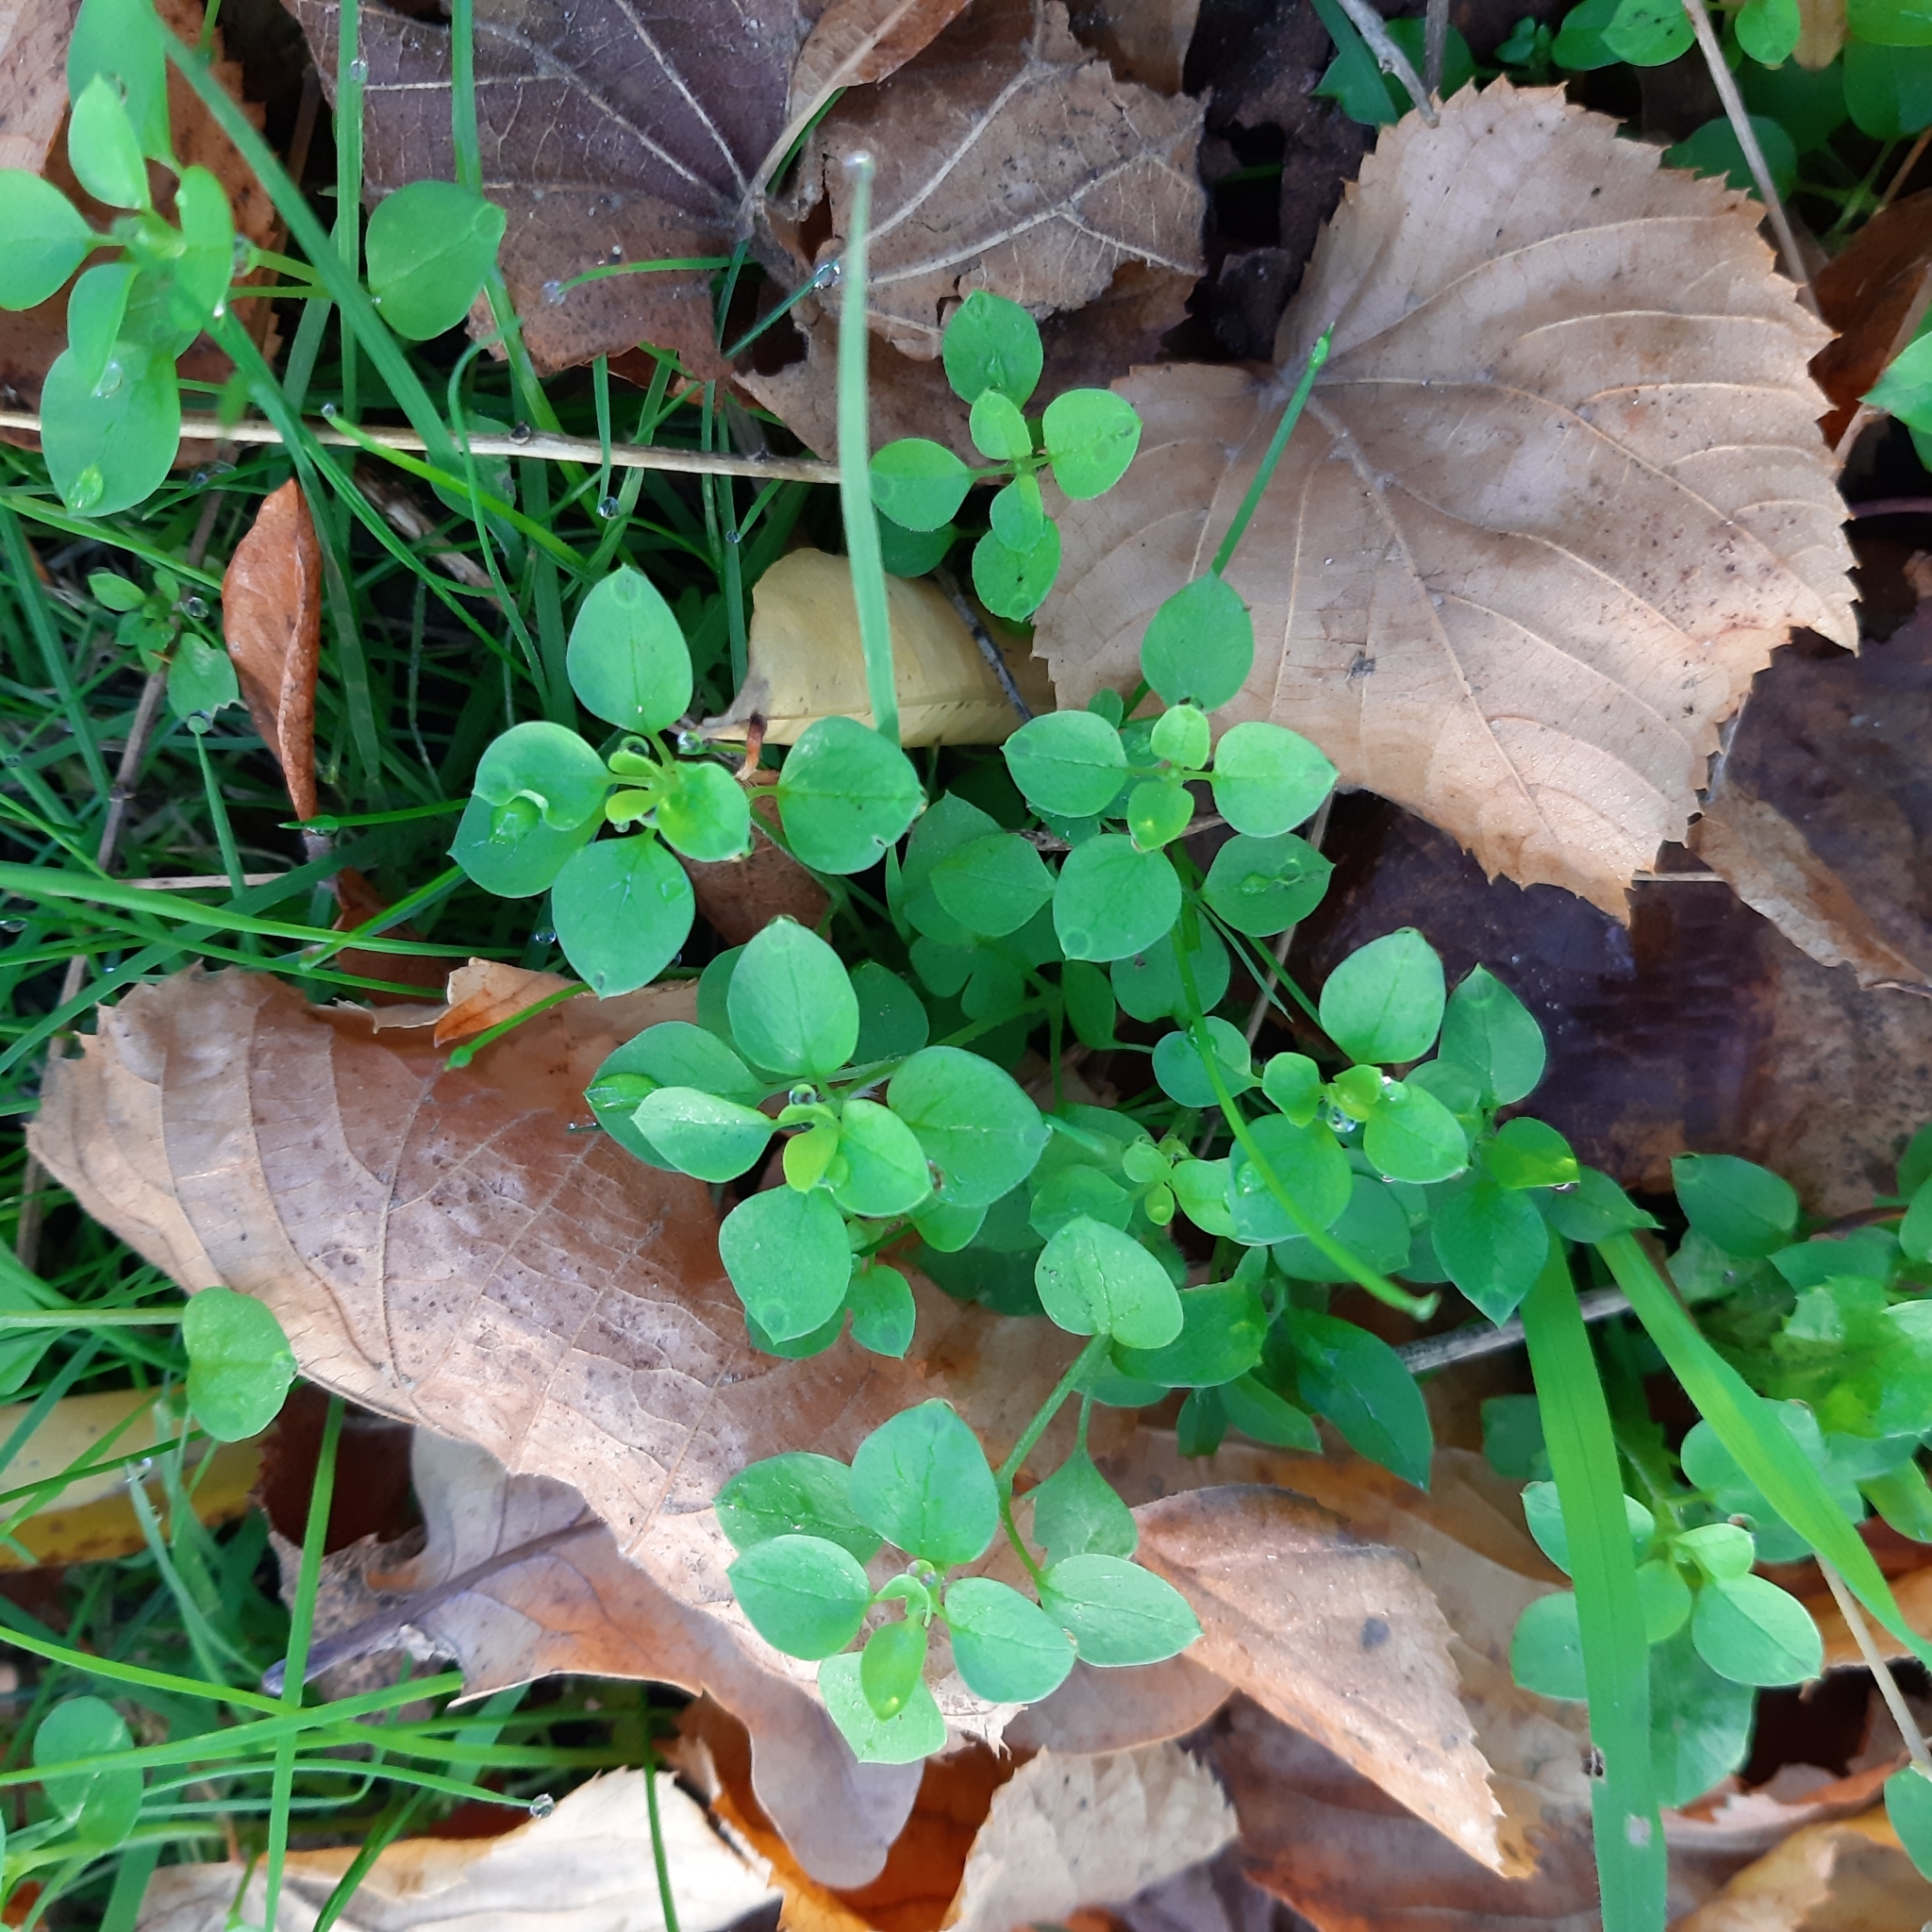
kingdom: Plantae
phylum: Tracheophyta
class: Magnoliopsida
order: Caryophyllales
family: Caryophyllaceae
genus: Stellaria
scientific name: Stellaria media
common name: Common chickweed
